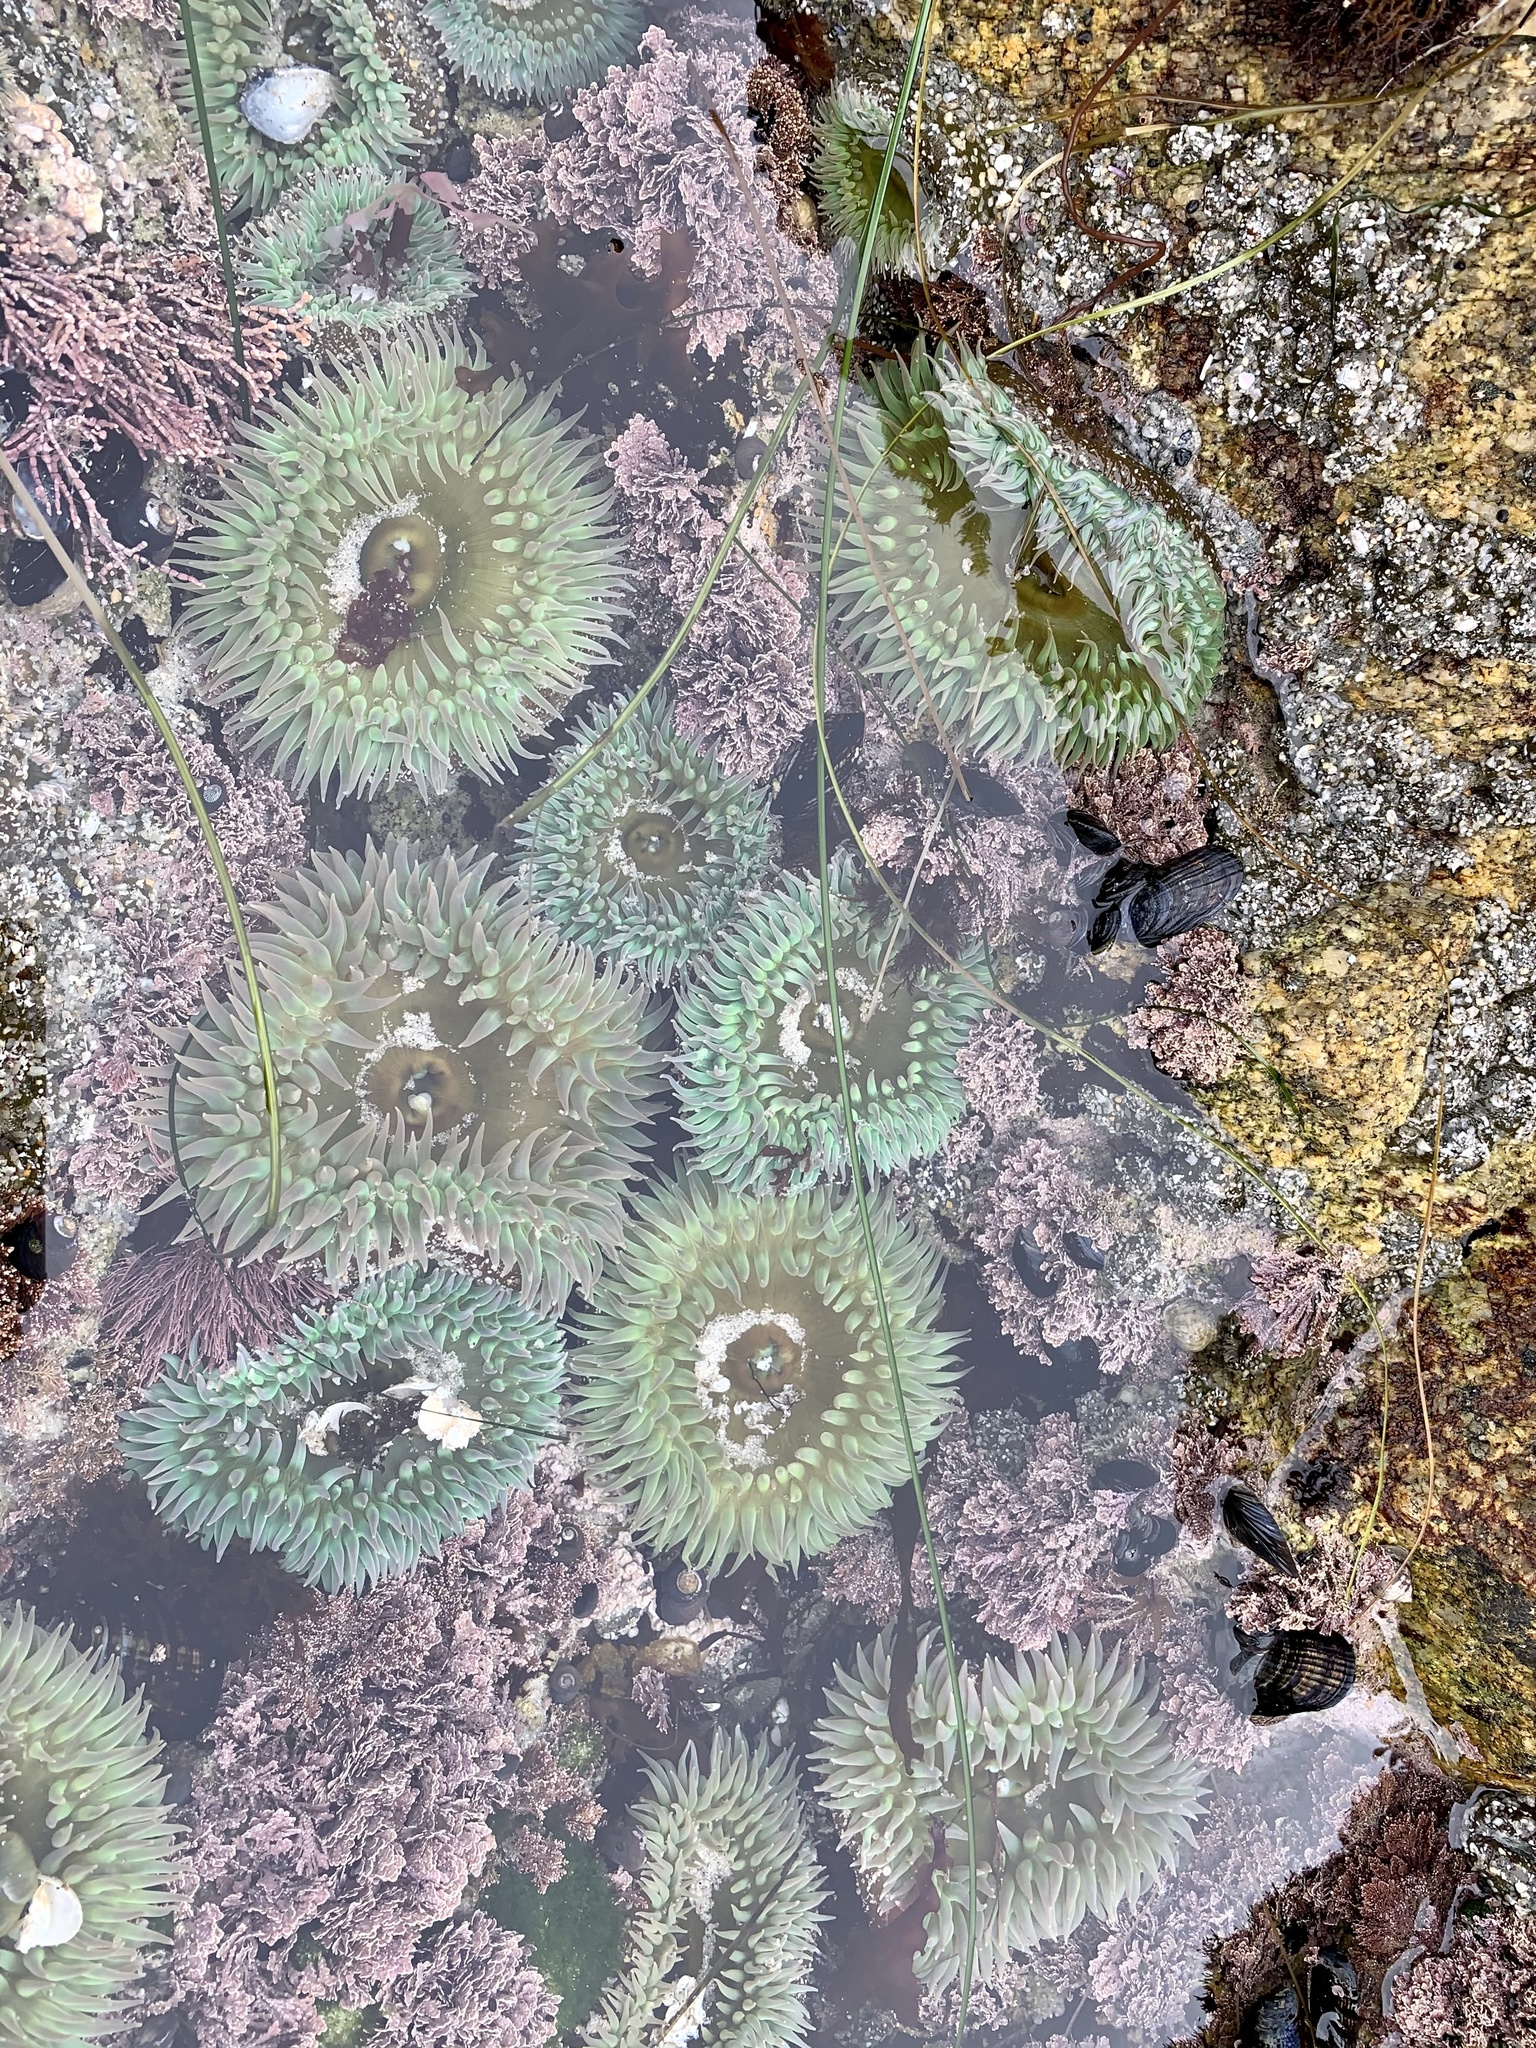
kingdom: Animalia
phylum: Cnidaria
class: Anthozoa
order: Actiniaria
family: Actiniidae
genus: Anthopleura
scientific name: Anthopleura xanthogrammica
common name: Giant green anemone
